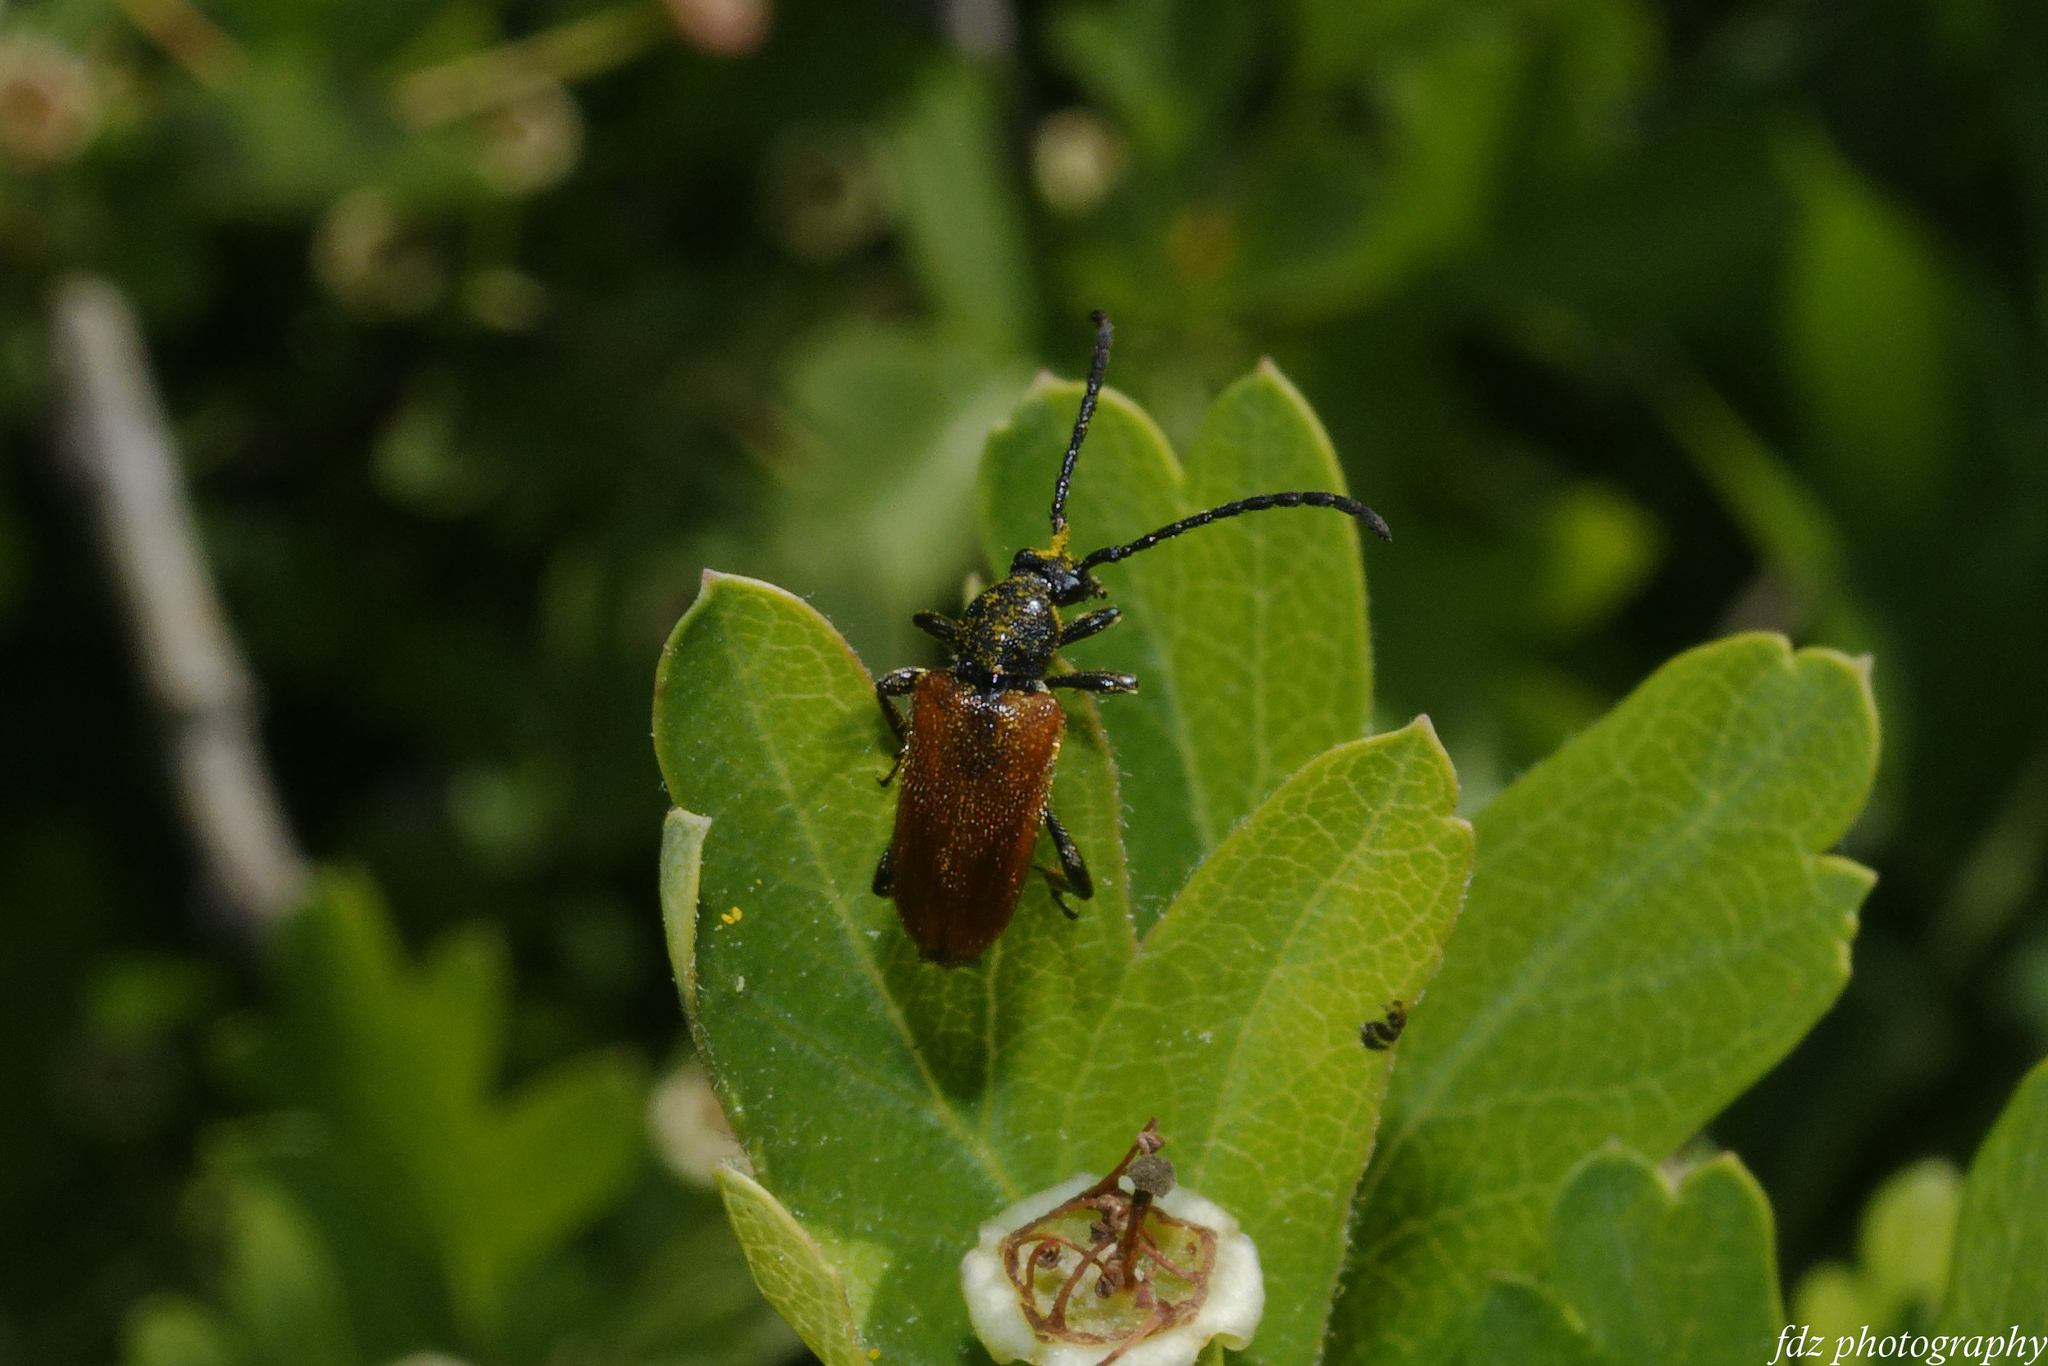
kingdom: Animalia
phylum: Arthropoda
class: Insecta
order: Coleoptera
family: Cerambycidae
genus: Pseudovadonia
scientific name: Pseudovadonia livida
